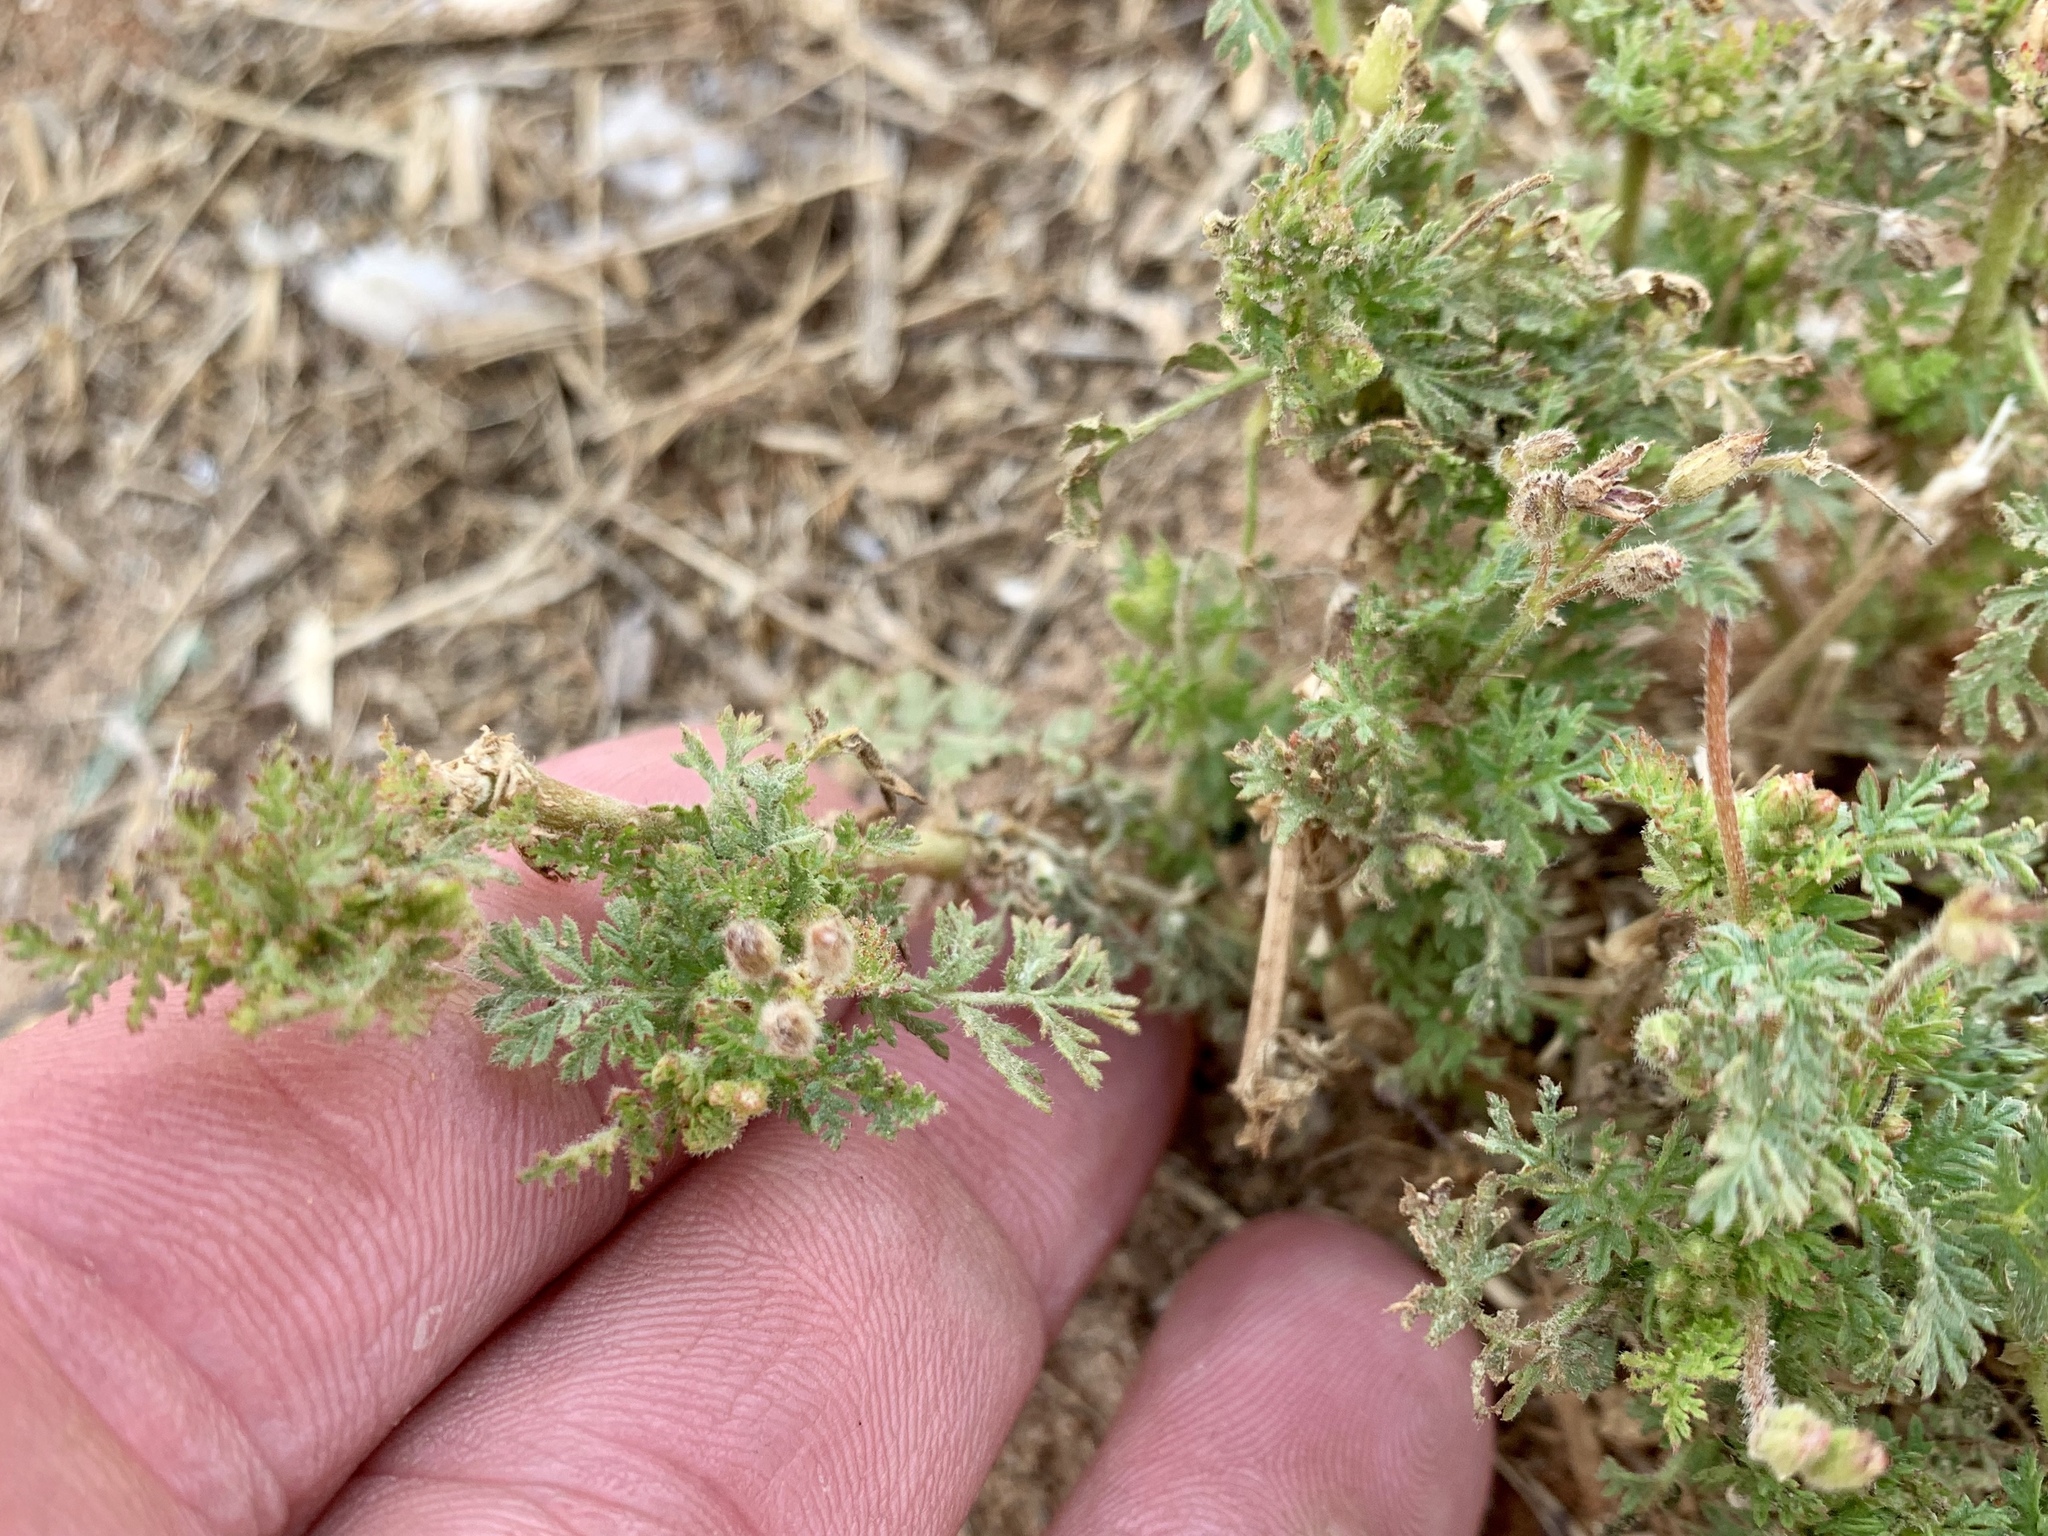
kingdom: Plantae
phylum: Tracheophyta
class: Magnoliopsida
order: Geraniales
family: Geraniaceae
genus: Erodium
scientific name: Erodium cicutarium
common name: Common stork's-bill
